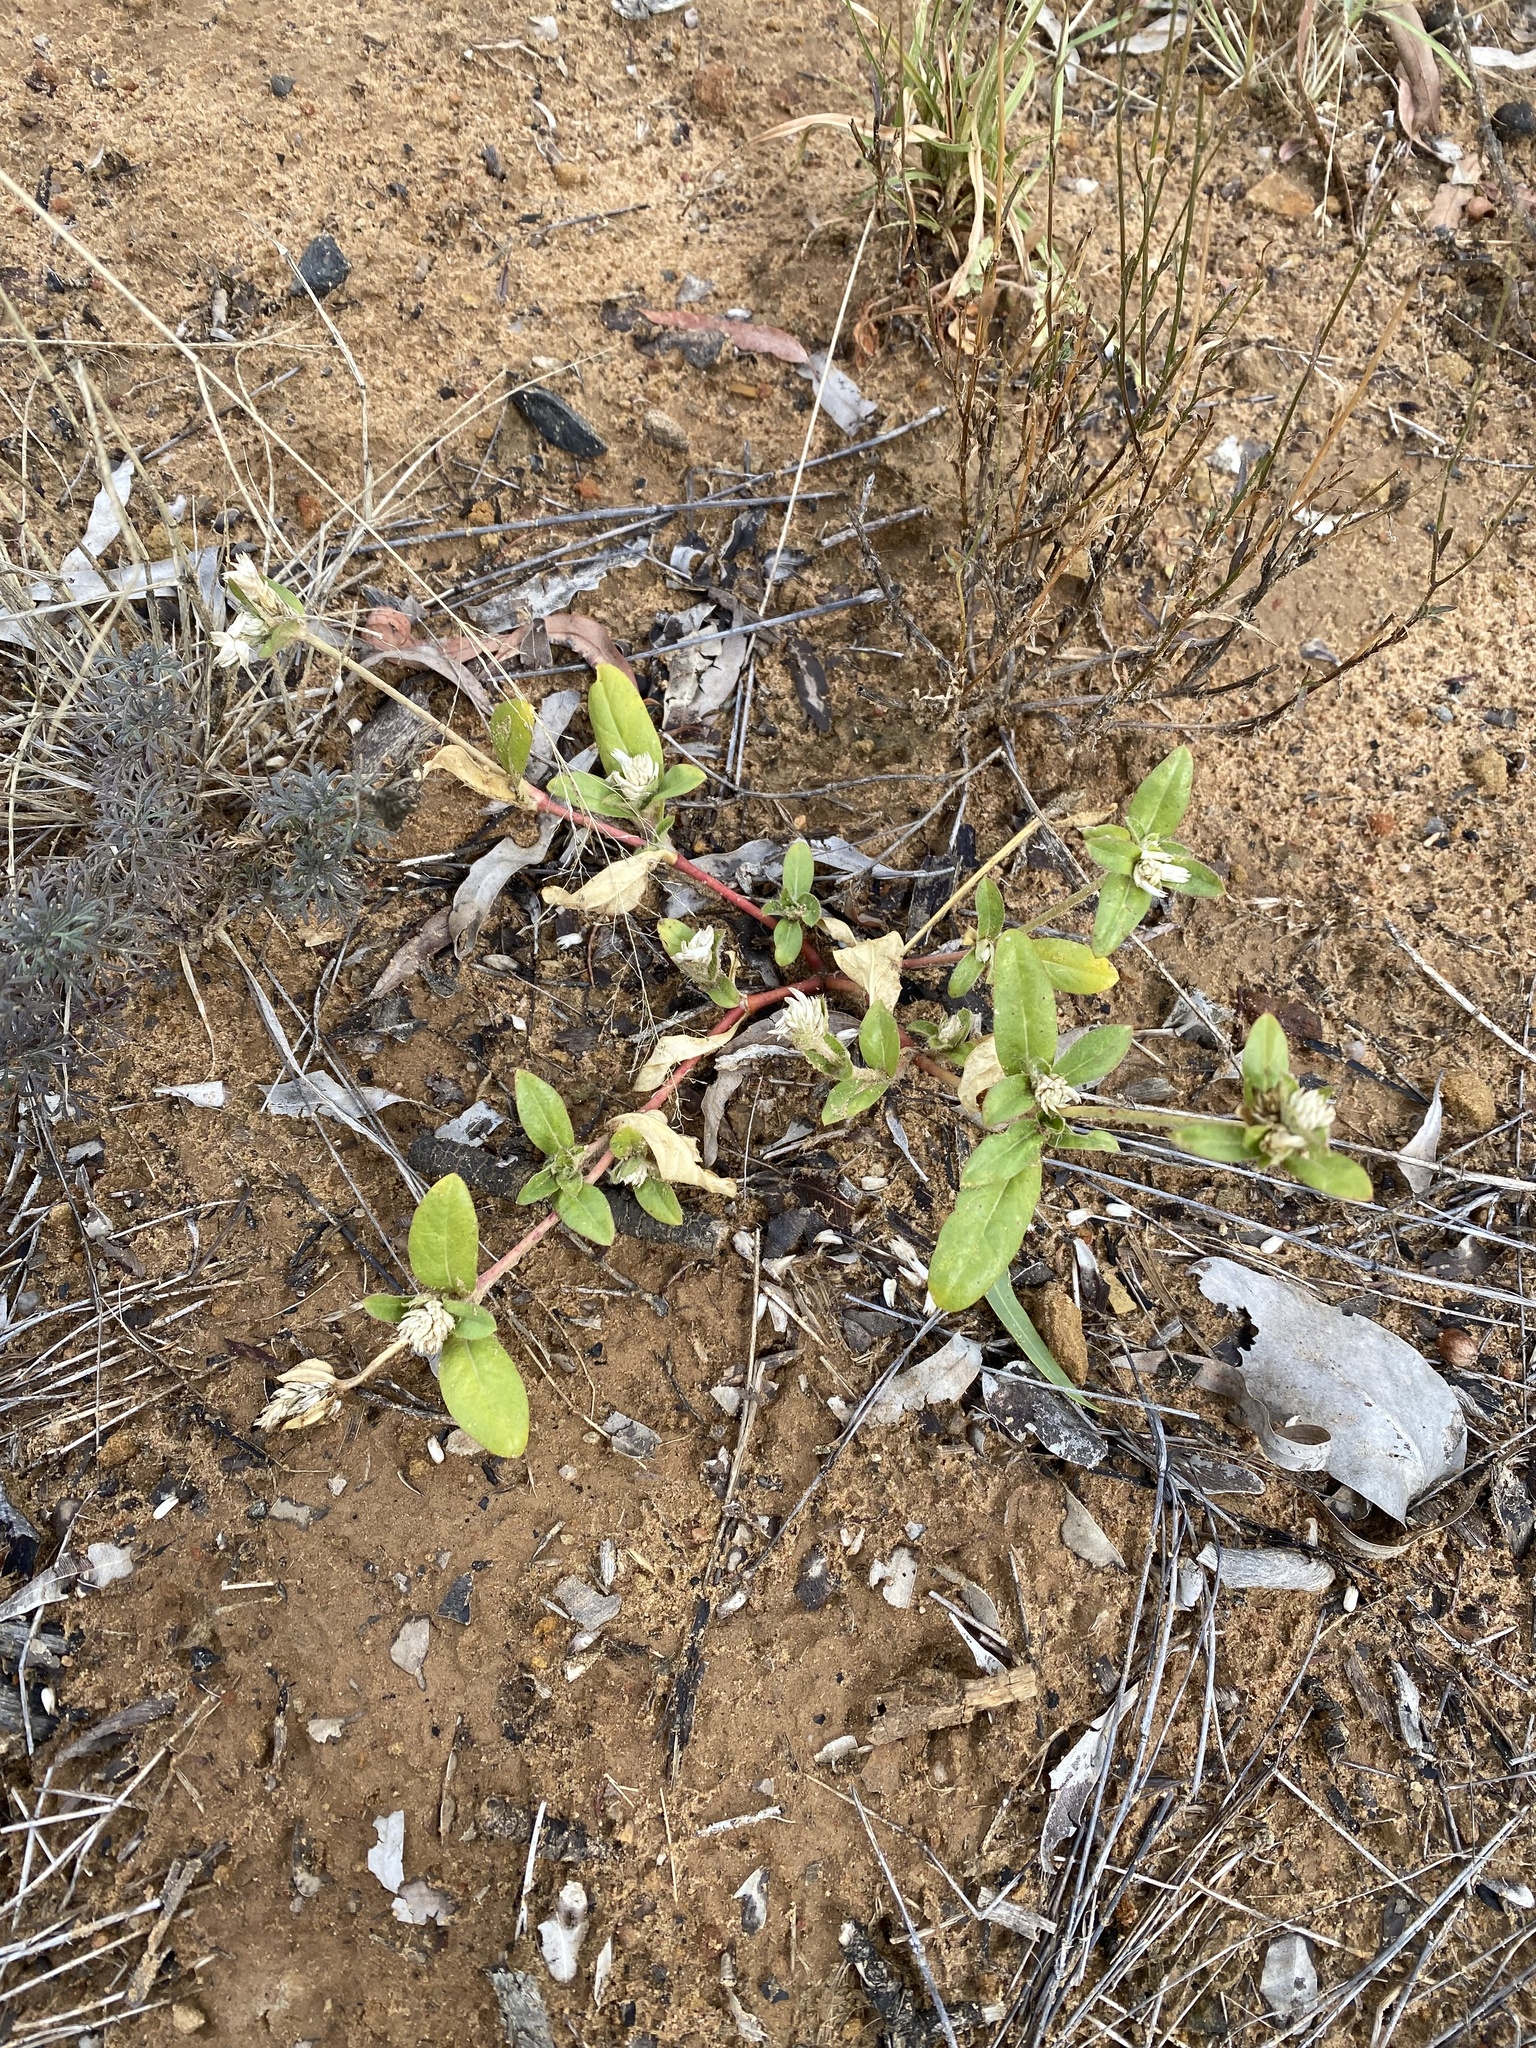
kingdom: Plantae
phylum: Tracheophyta
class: Magnoliopsida
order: Caryophyllales
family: Amaranthaceae
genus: Gomphrena
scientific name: Gomphrena celosioides
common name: Gomphrena-weed
